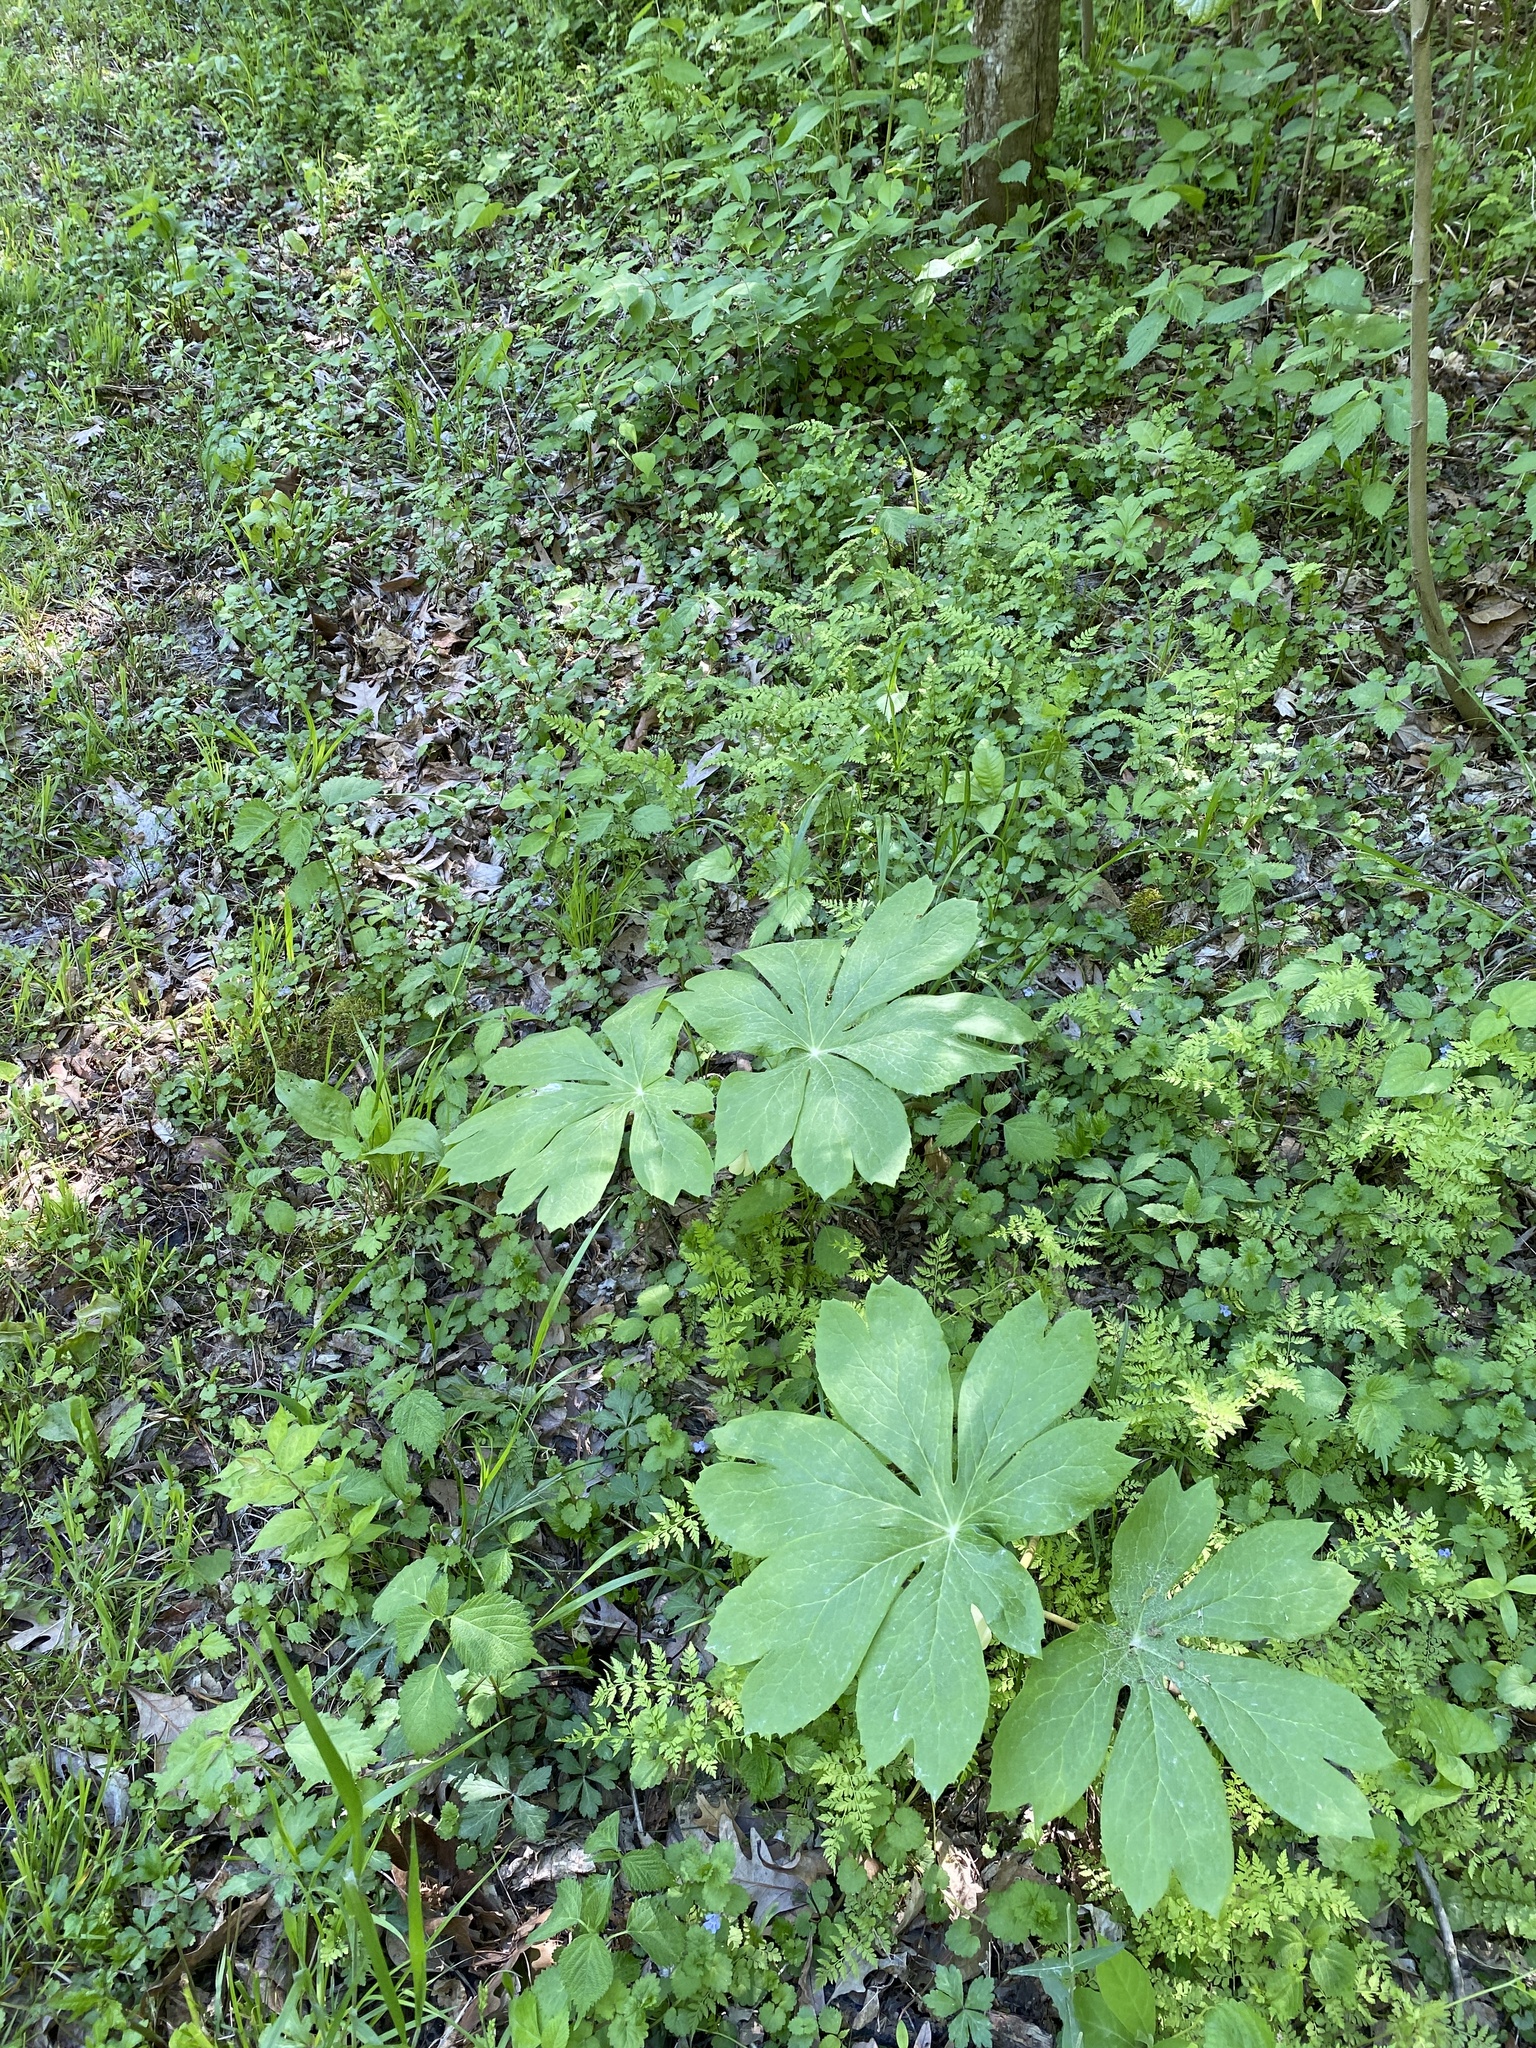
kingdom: Plantae
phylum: Tracheophyta
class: Magnoliopsida
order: Ranunculales
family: Berberidaceae
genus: Podophyllum
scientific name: Podophyllum peltatum
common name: Wild mandrake
